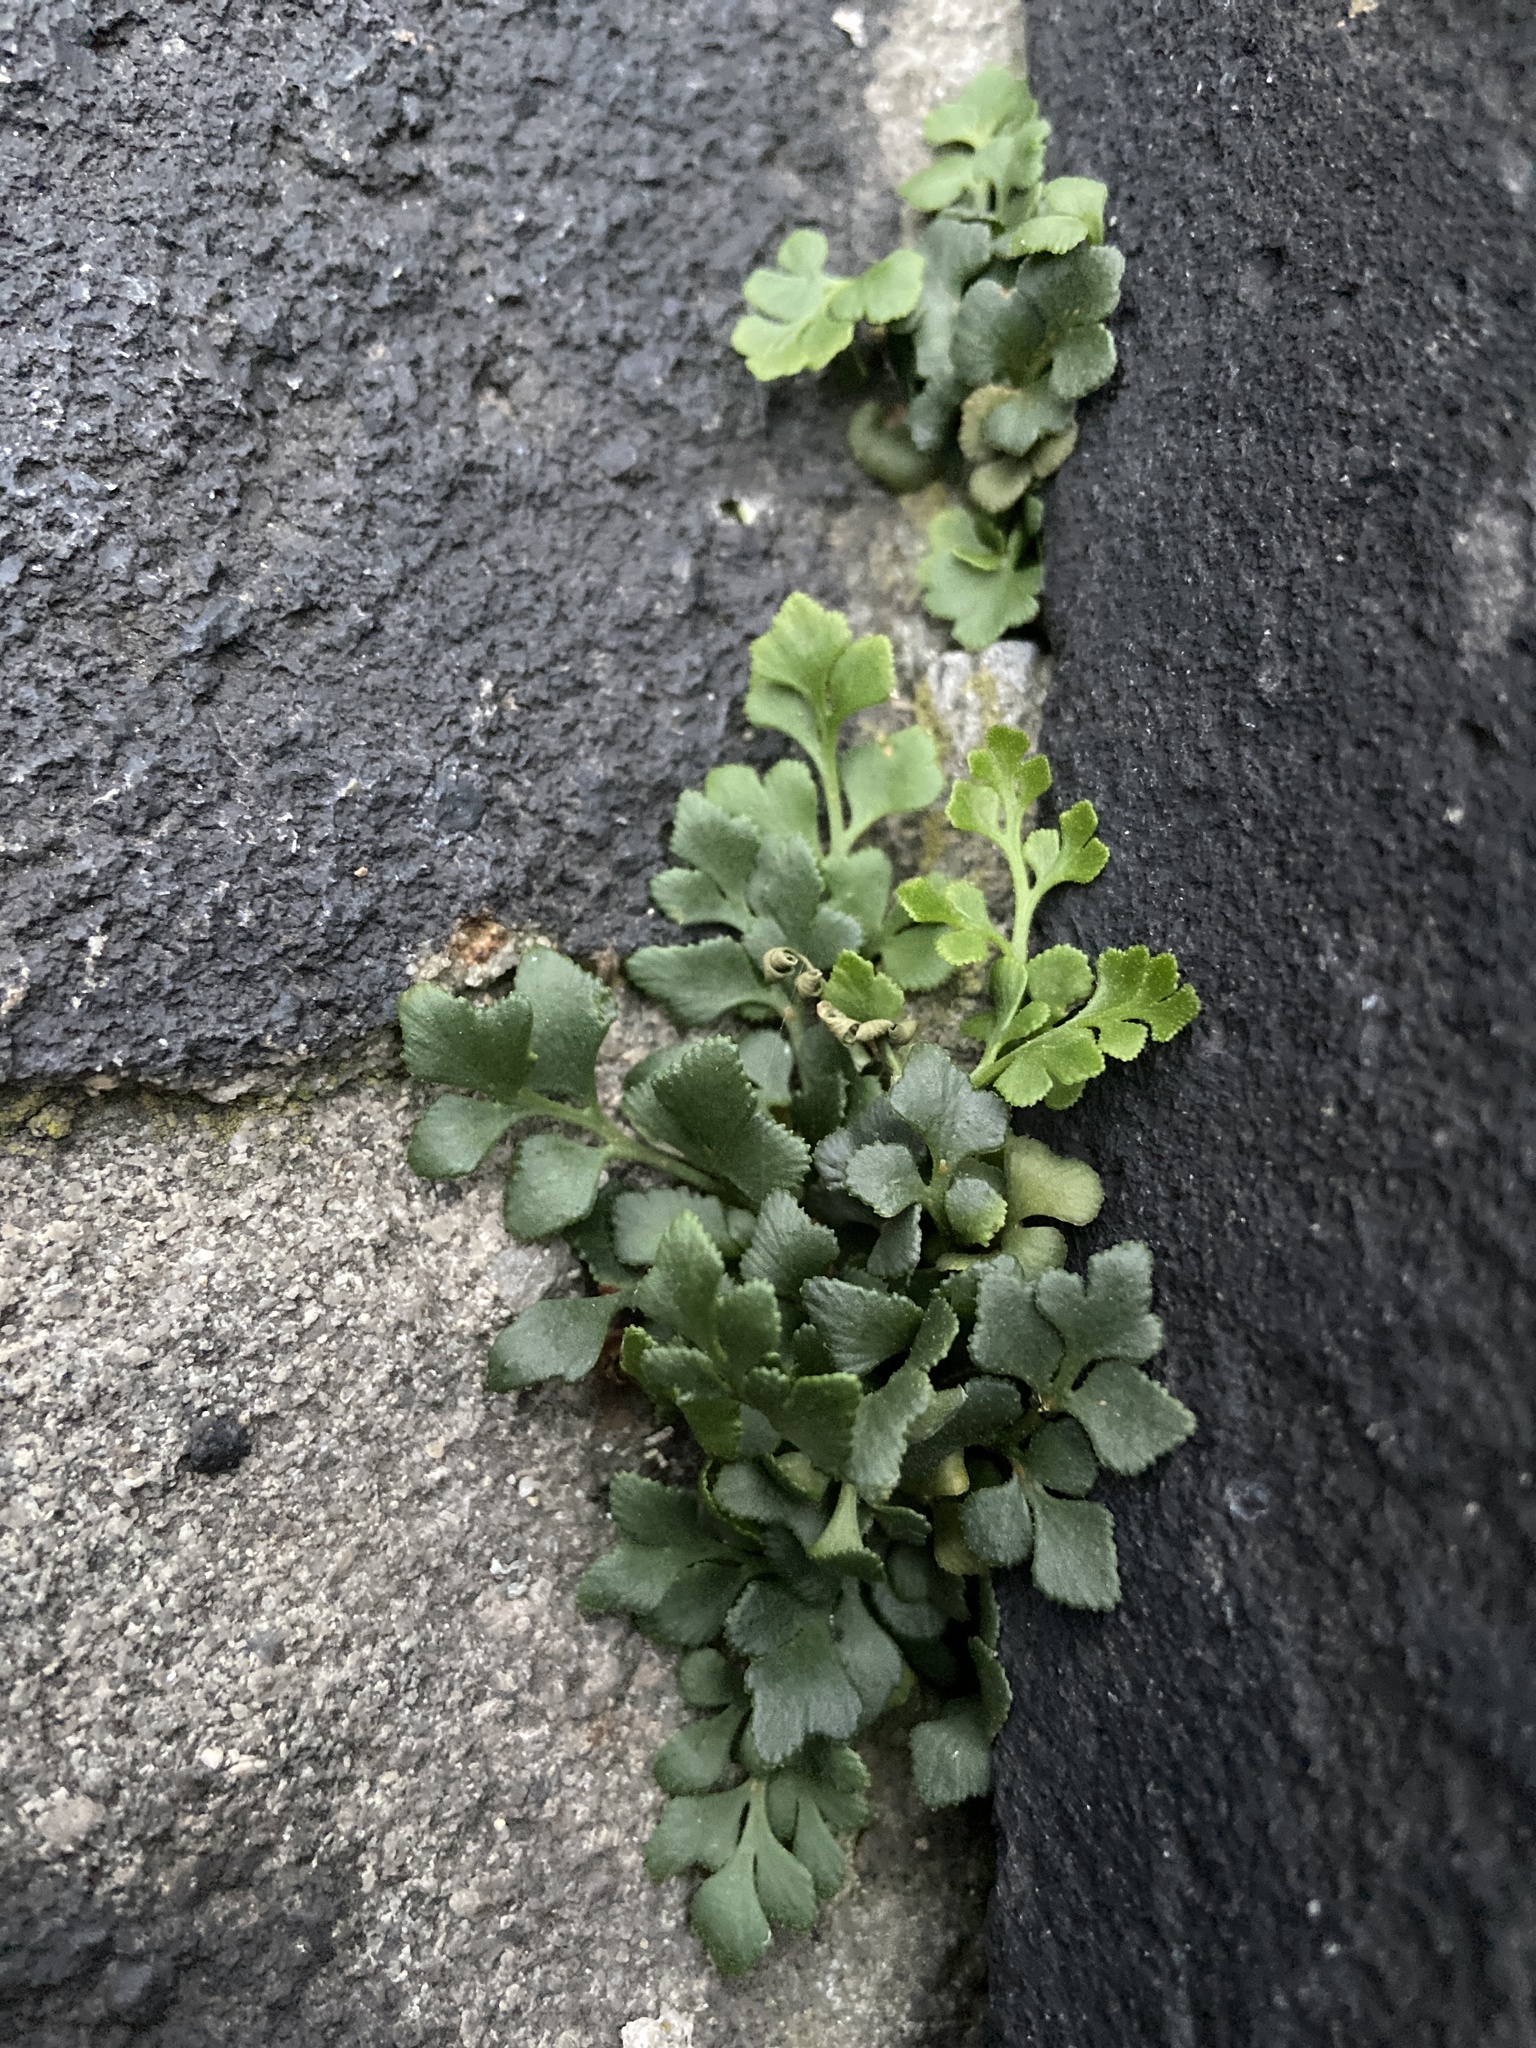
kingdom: Plantae
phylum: Tracheophyta
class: Polypodiopsida
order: Polypodiales
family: Aspleniaceae
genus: Asplenium
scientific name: Asplenium ruta-muraria
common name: Wall-rue
